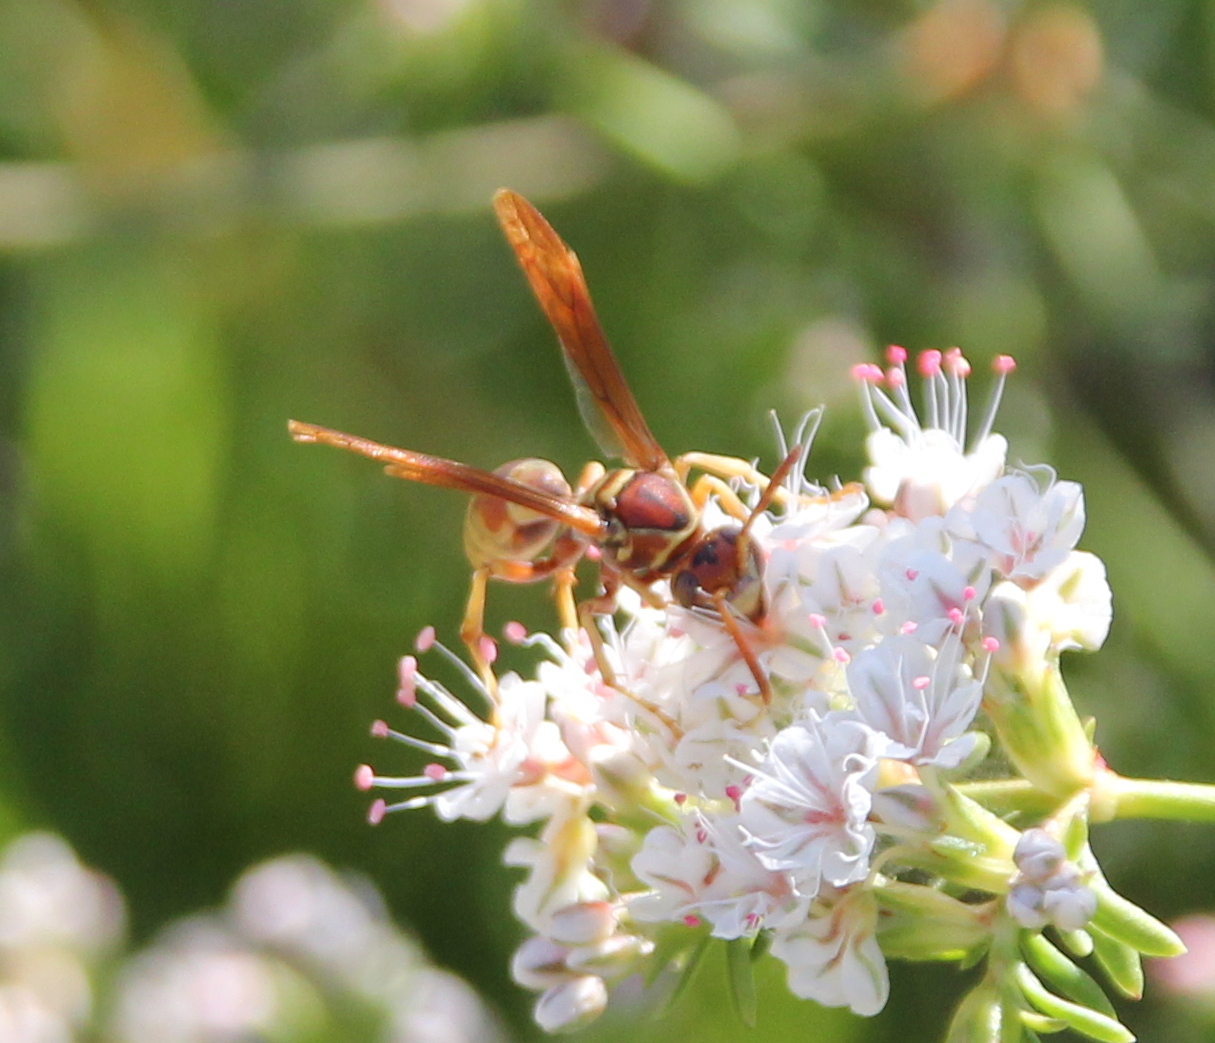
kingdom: Animalia
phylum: Arthropoda
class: Insecta
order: Hymenoptera
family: Eumenidae
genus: Polistes
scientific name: Polistes dorsalis
